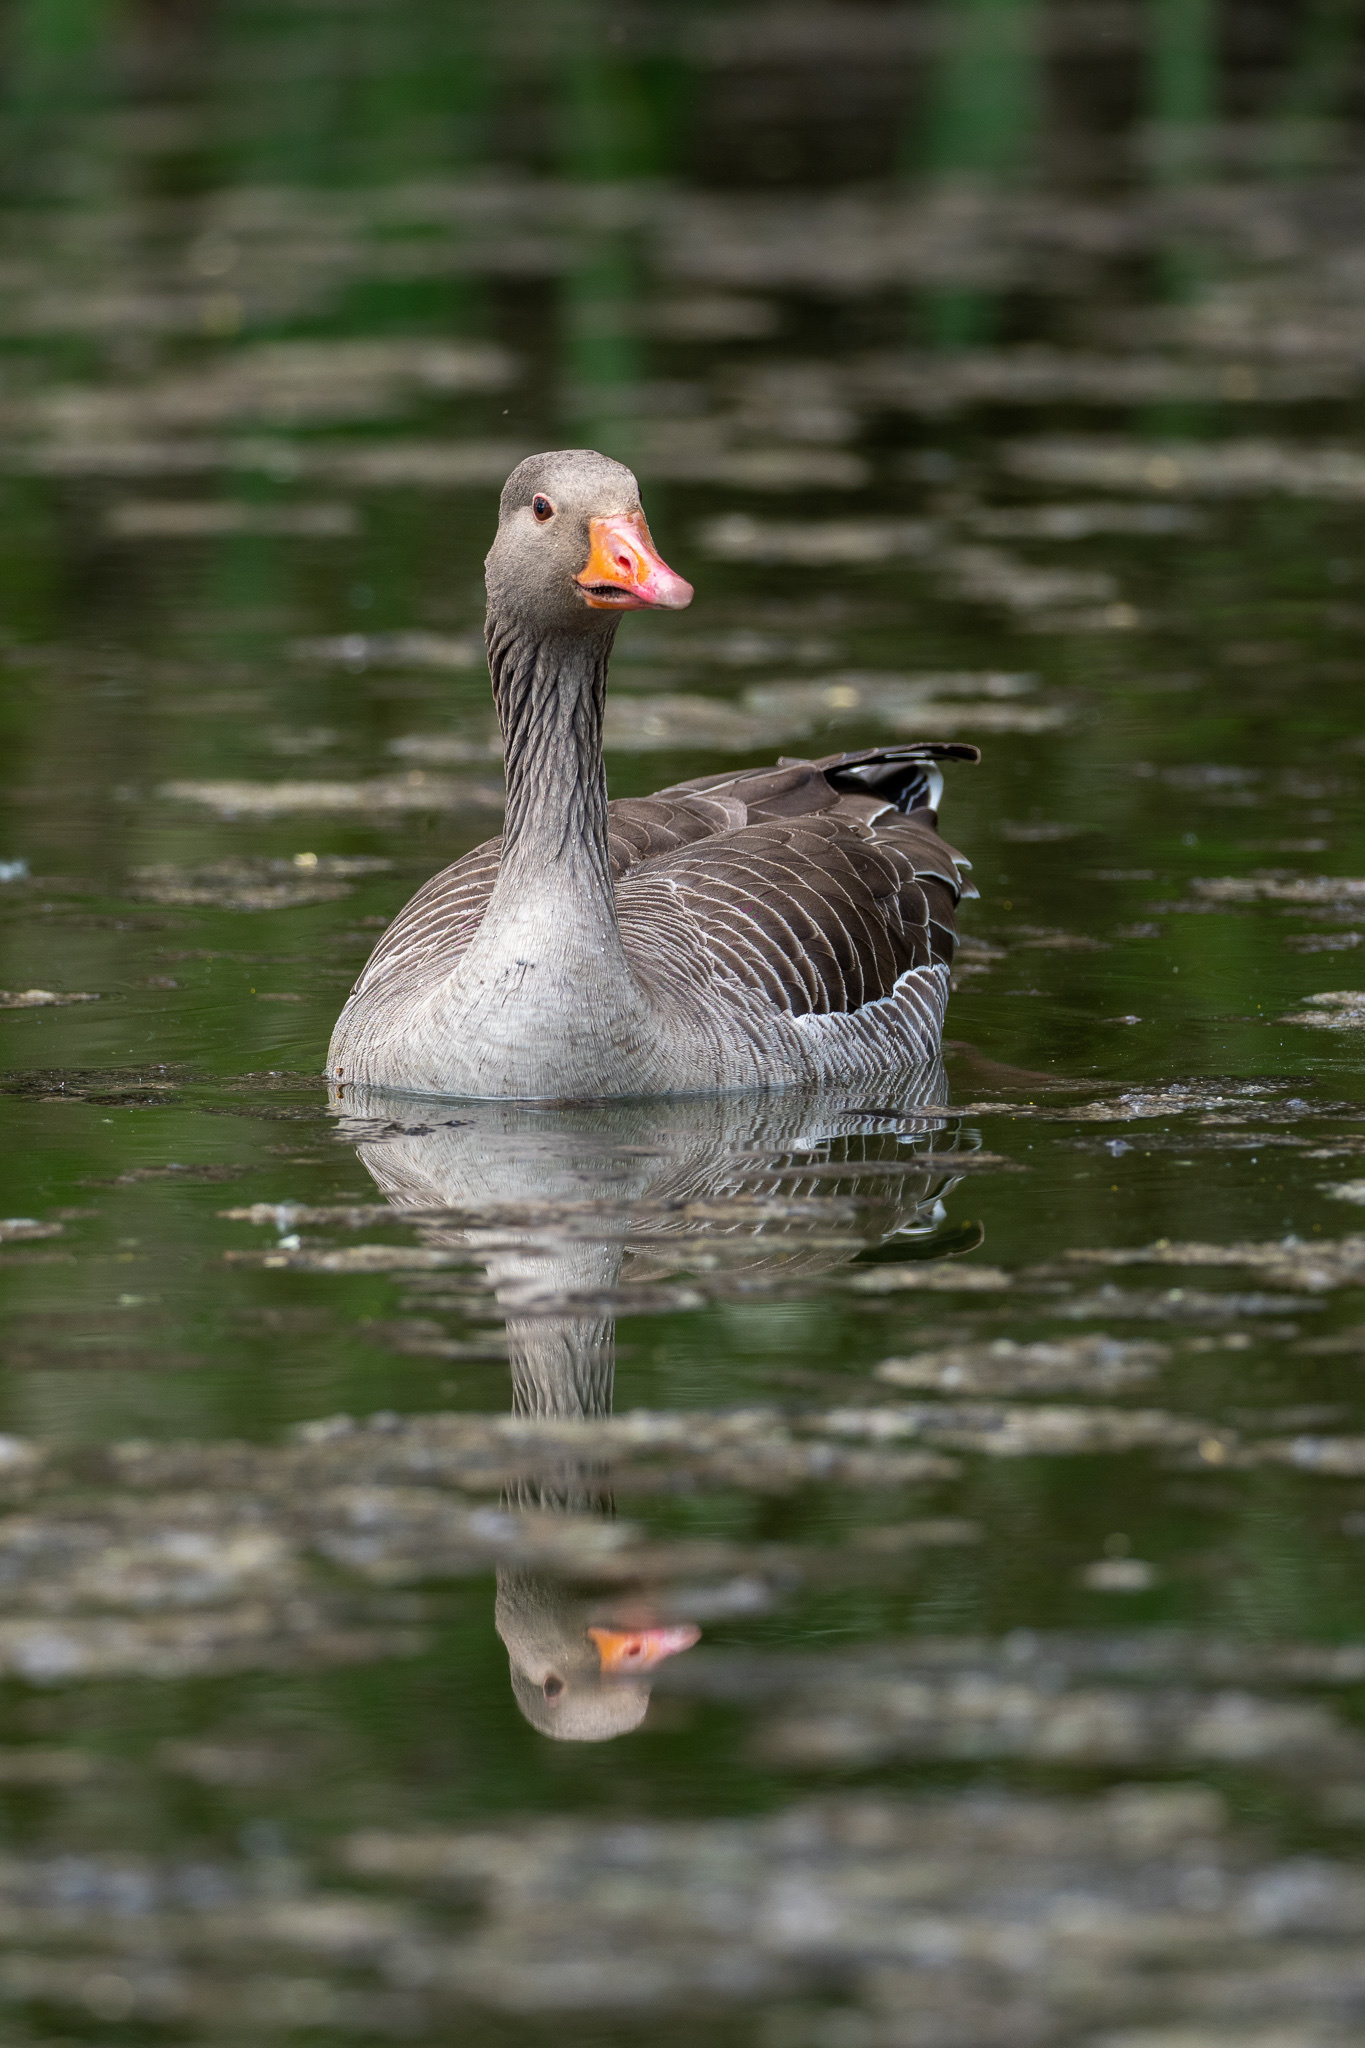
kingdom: Animalia
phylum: Chordata
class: Aves
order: Anseriformes
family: Anatidae
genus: Anser
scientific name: Anser anser
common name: Greylag goose
